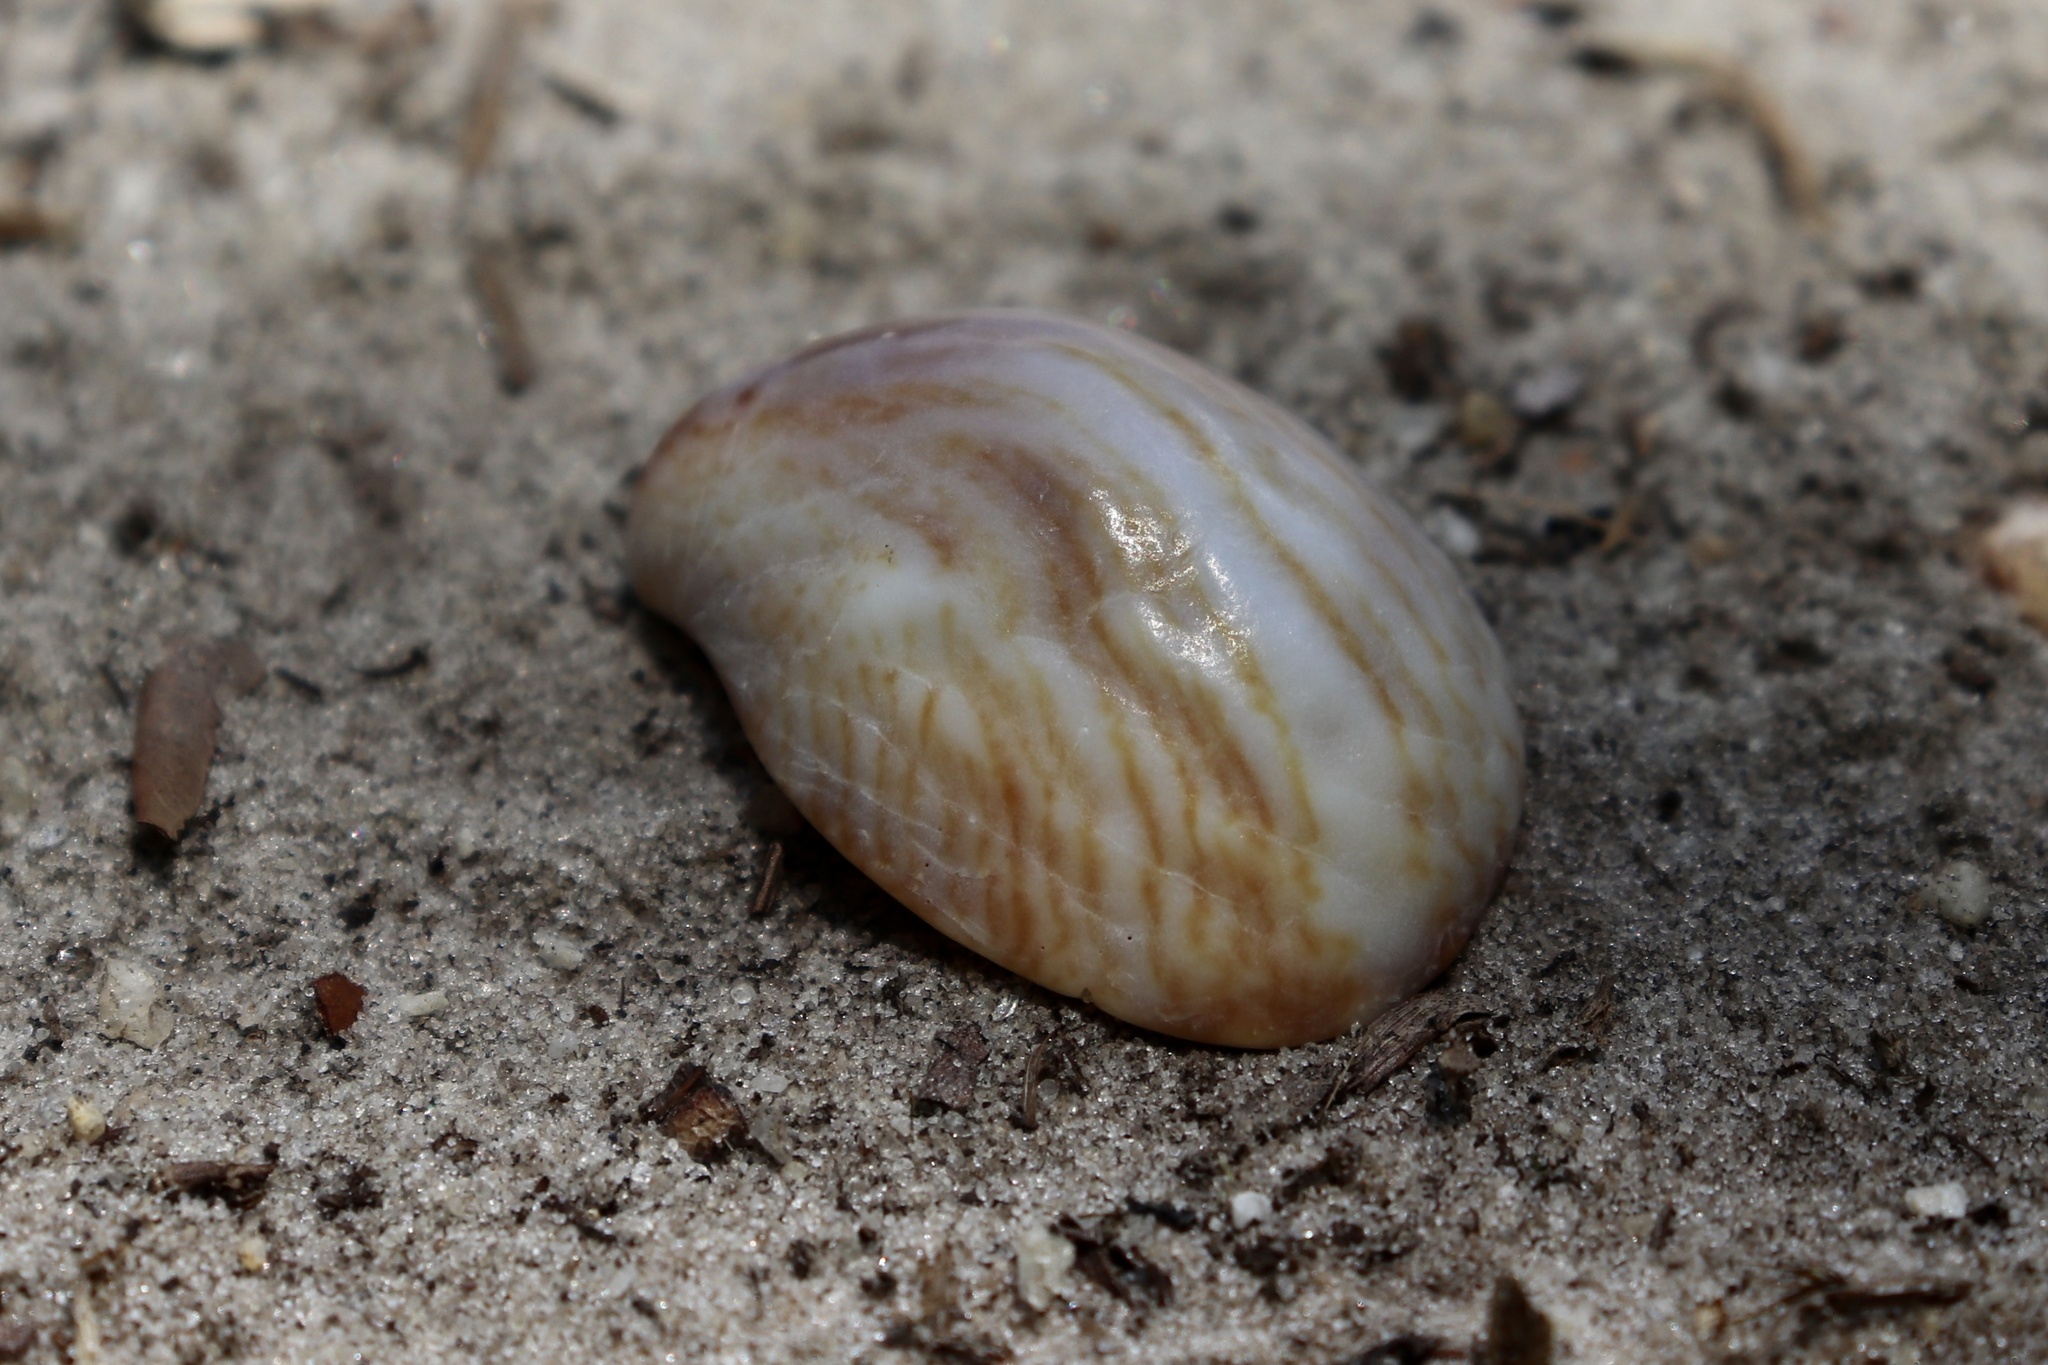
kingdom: Animalia
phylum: Mollusca
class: Gastropoda
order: Littorinimorpha
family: Calyptraeidae
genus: Crepidula
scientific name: Crepidula fornicata
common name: Slipper limpet
